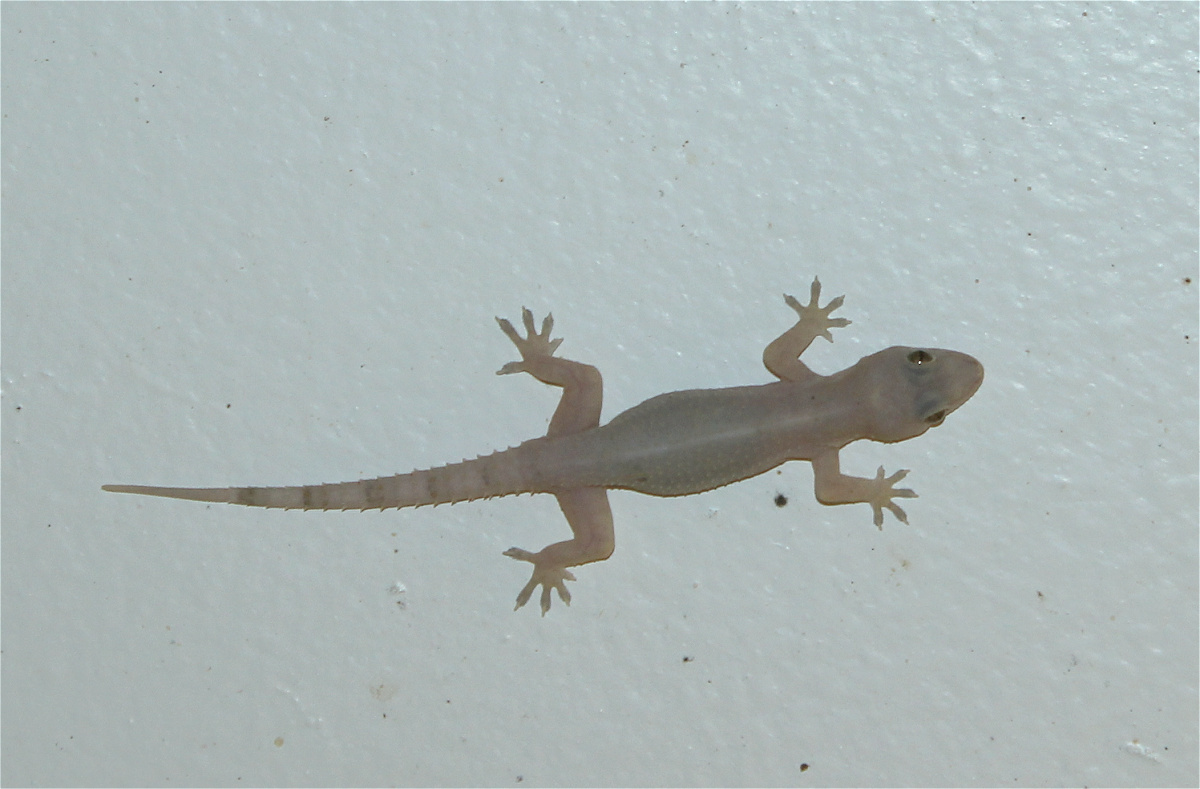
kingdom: Animalia
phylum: Chordata
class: Squamata
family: Gekkonidae
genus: Hemidactylus
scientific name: Hemidactylus mabouia
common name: House gecko
